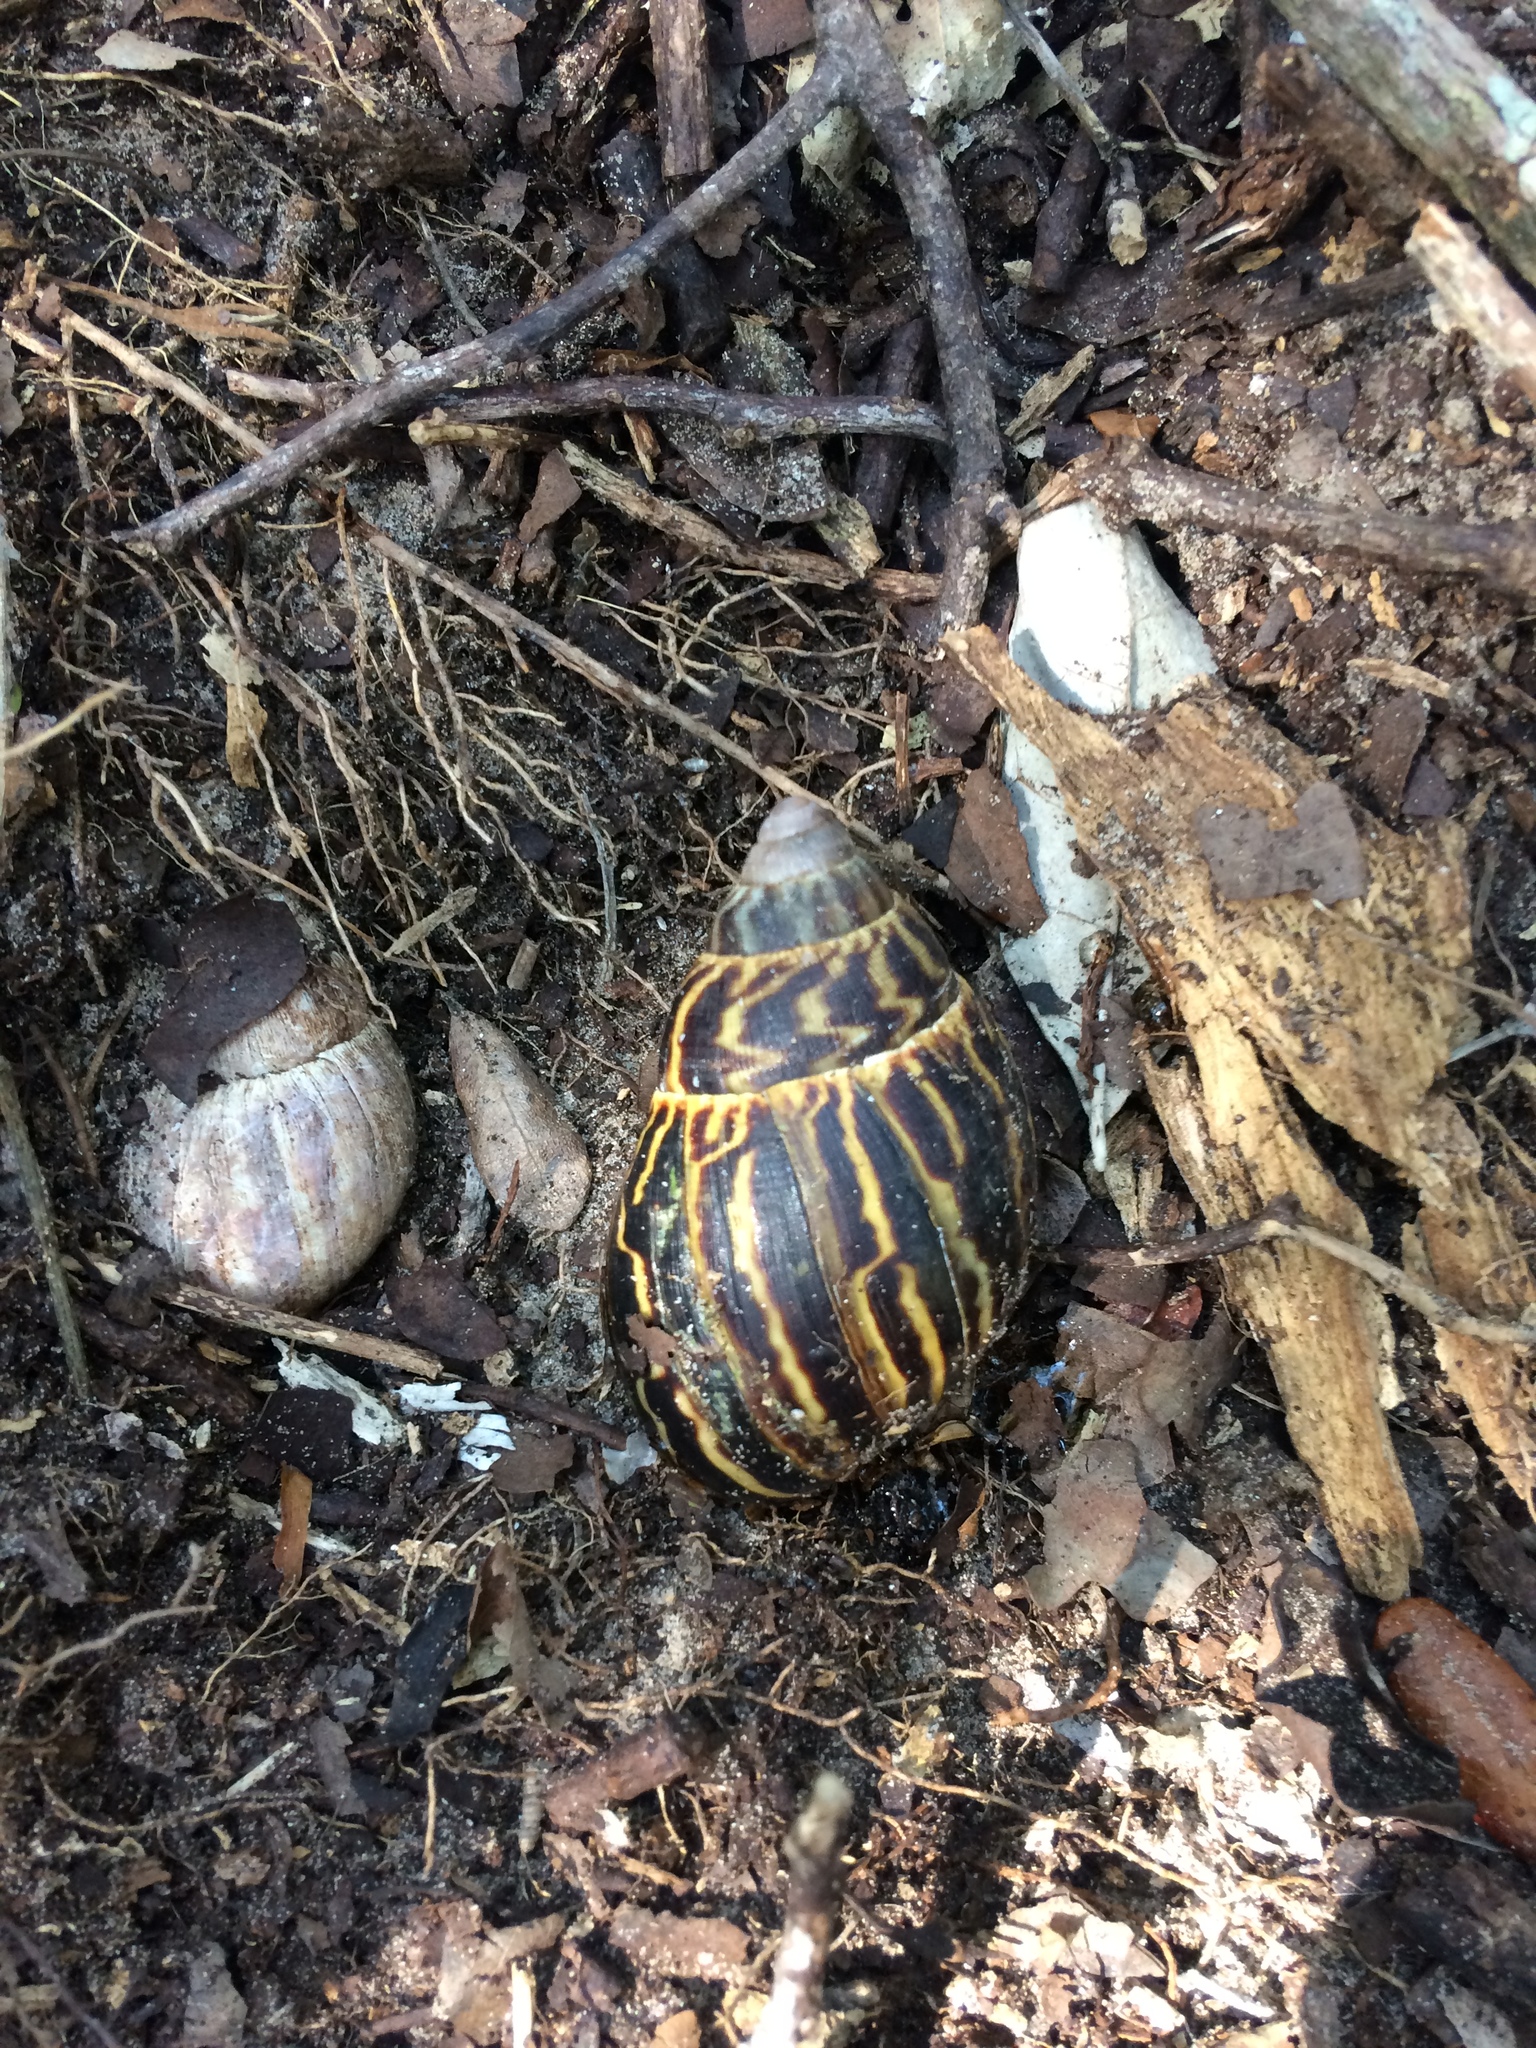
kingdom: Animalia
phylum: Mollusca
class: Gastropoda
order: Stylommatophora
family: Achatinidae
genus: Cochlitoma
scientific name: Cochlitoma zebra
